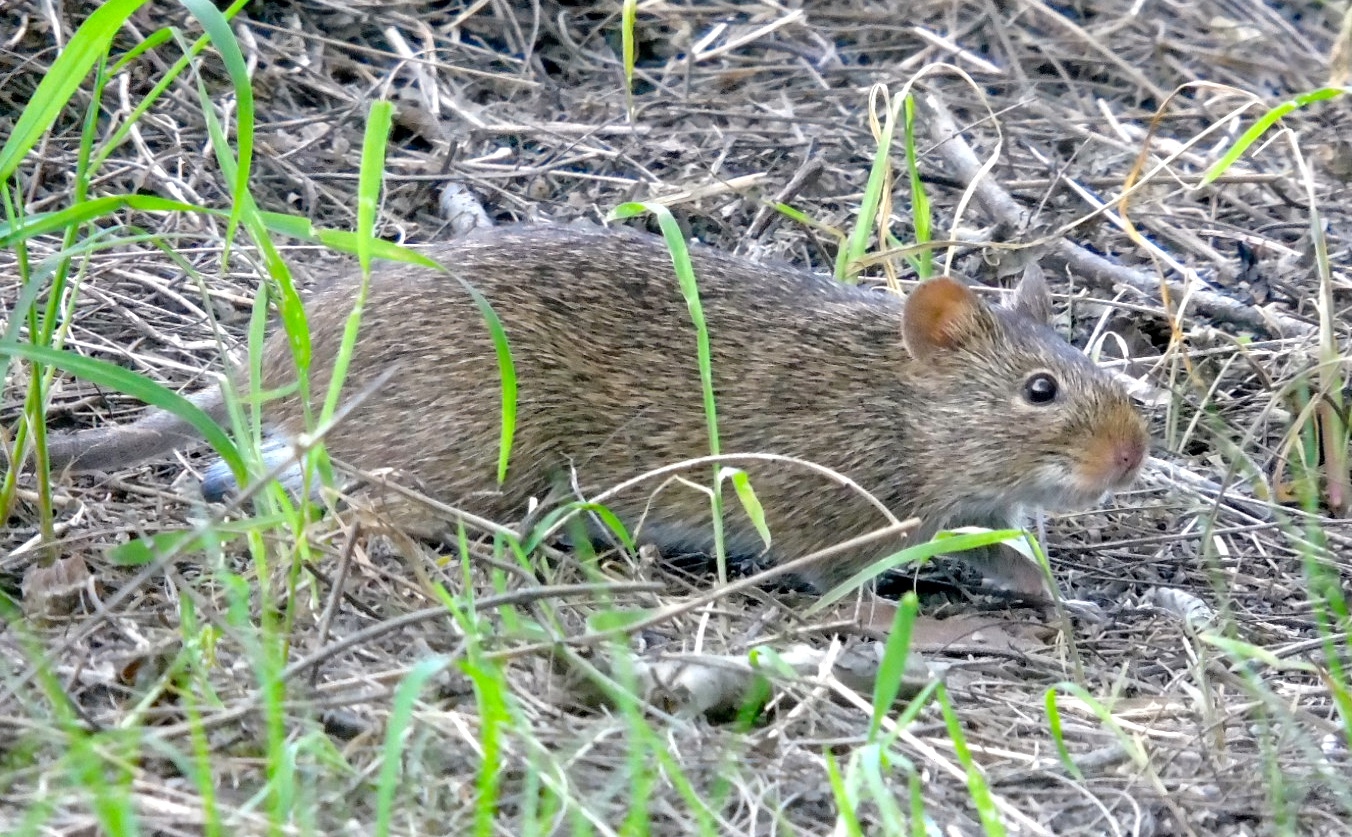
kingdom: Animalia
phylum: Chordata
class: Mammalia
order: Rodentia
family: Cricetidae
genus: Sigmodon
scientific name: Sigmodon arizonae
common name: Arizona cotton rat
